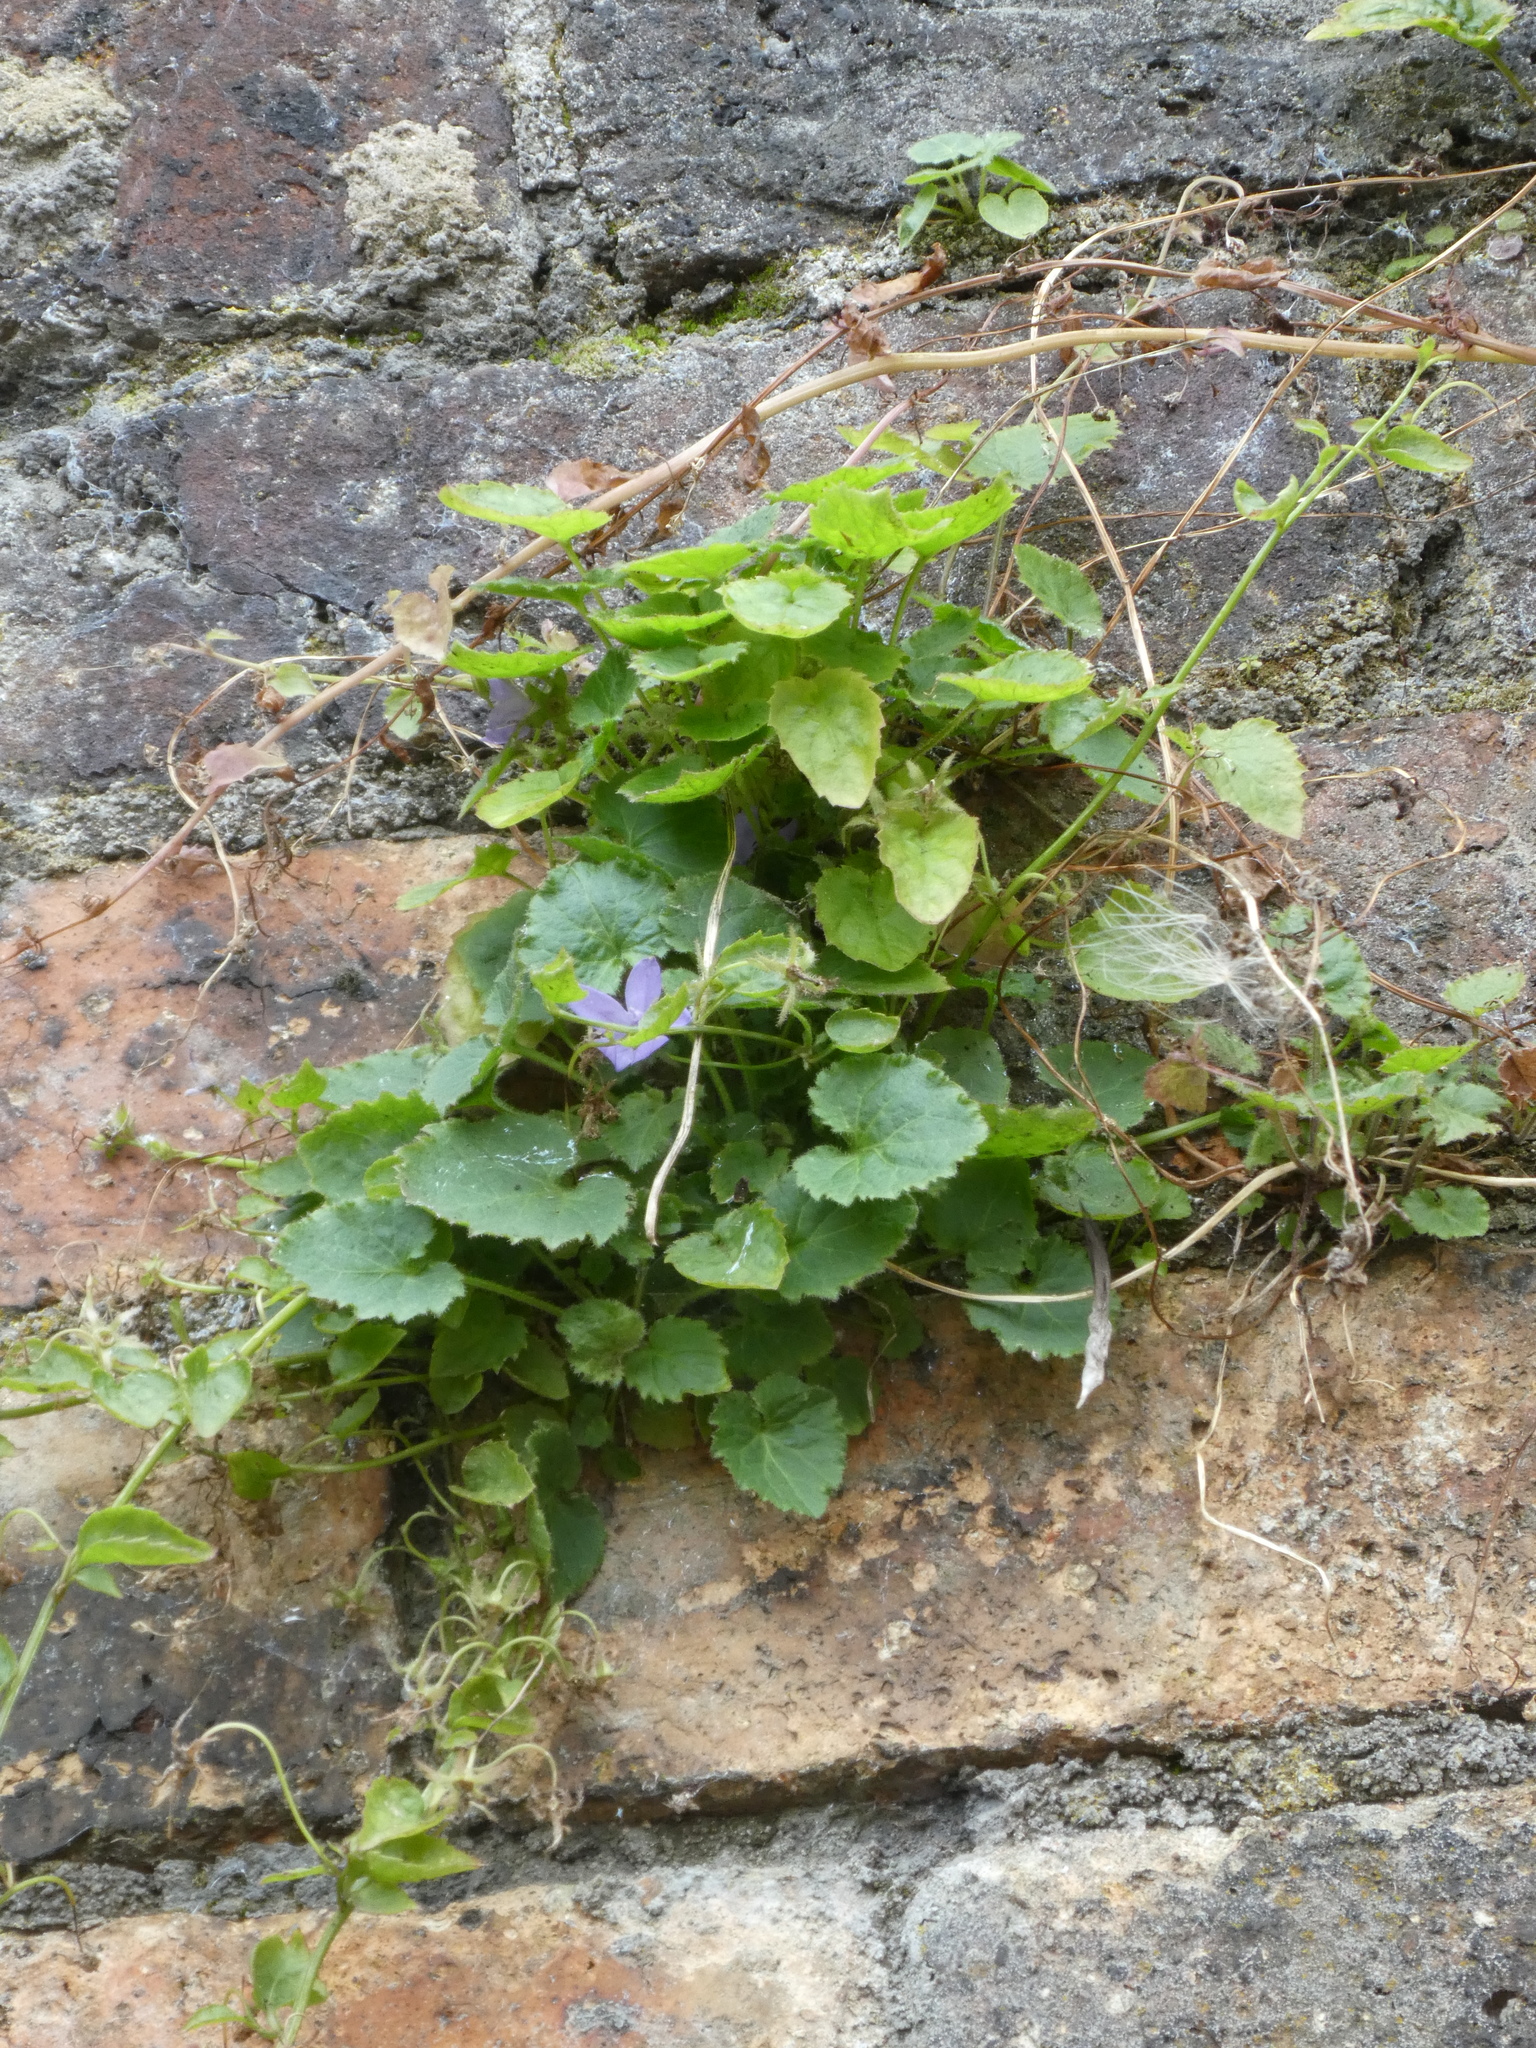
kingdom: Plantae
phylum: Tracheophyta
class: Magnoliopsida
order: Asterales
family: Campanulaceae
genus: Campanula
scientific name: Campanula poscharskyana
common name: Trailing bellflower
